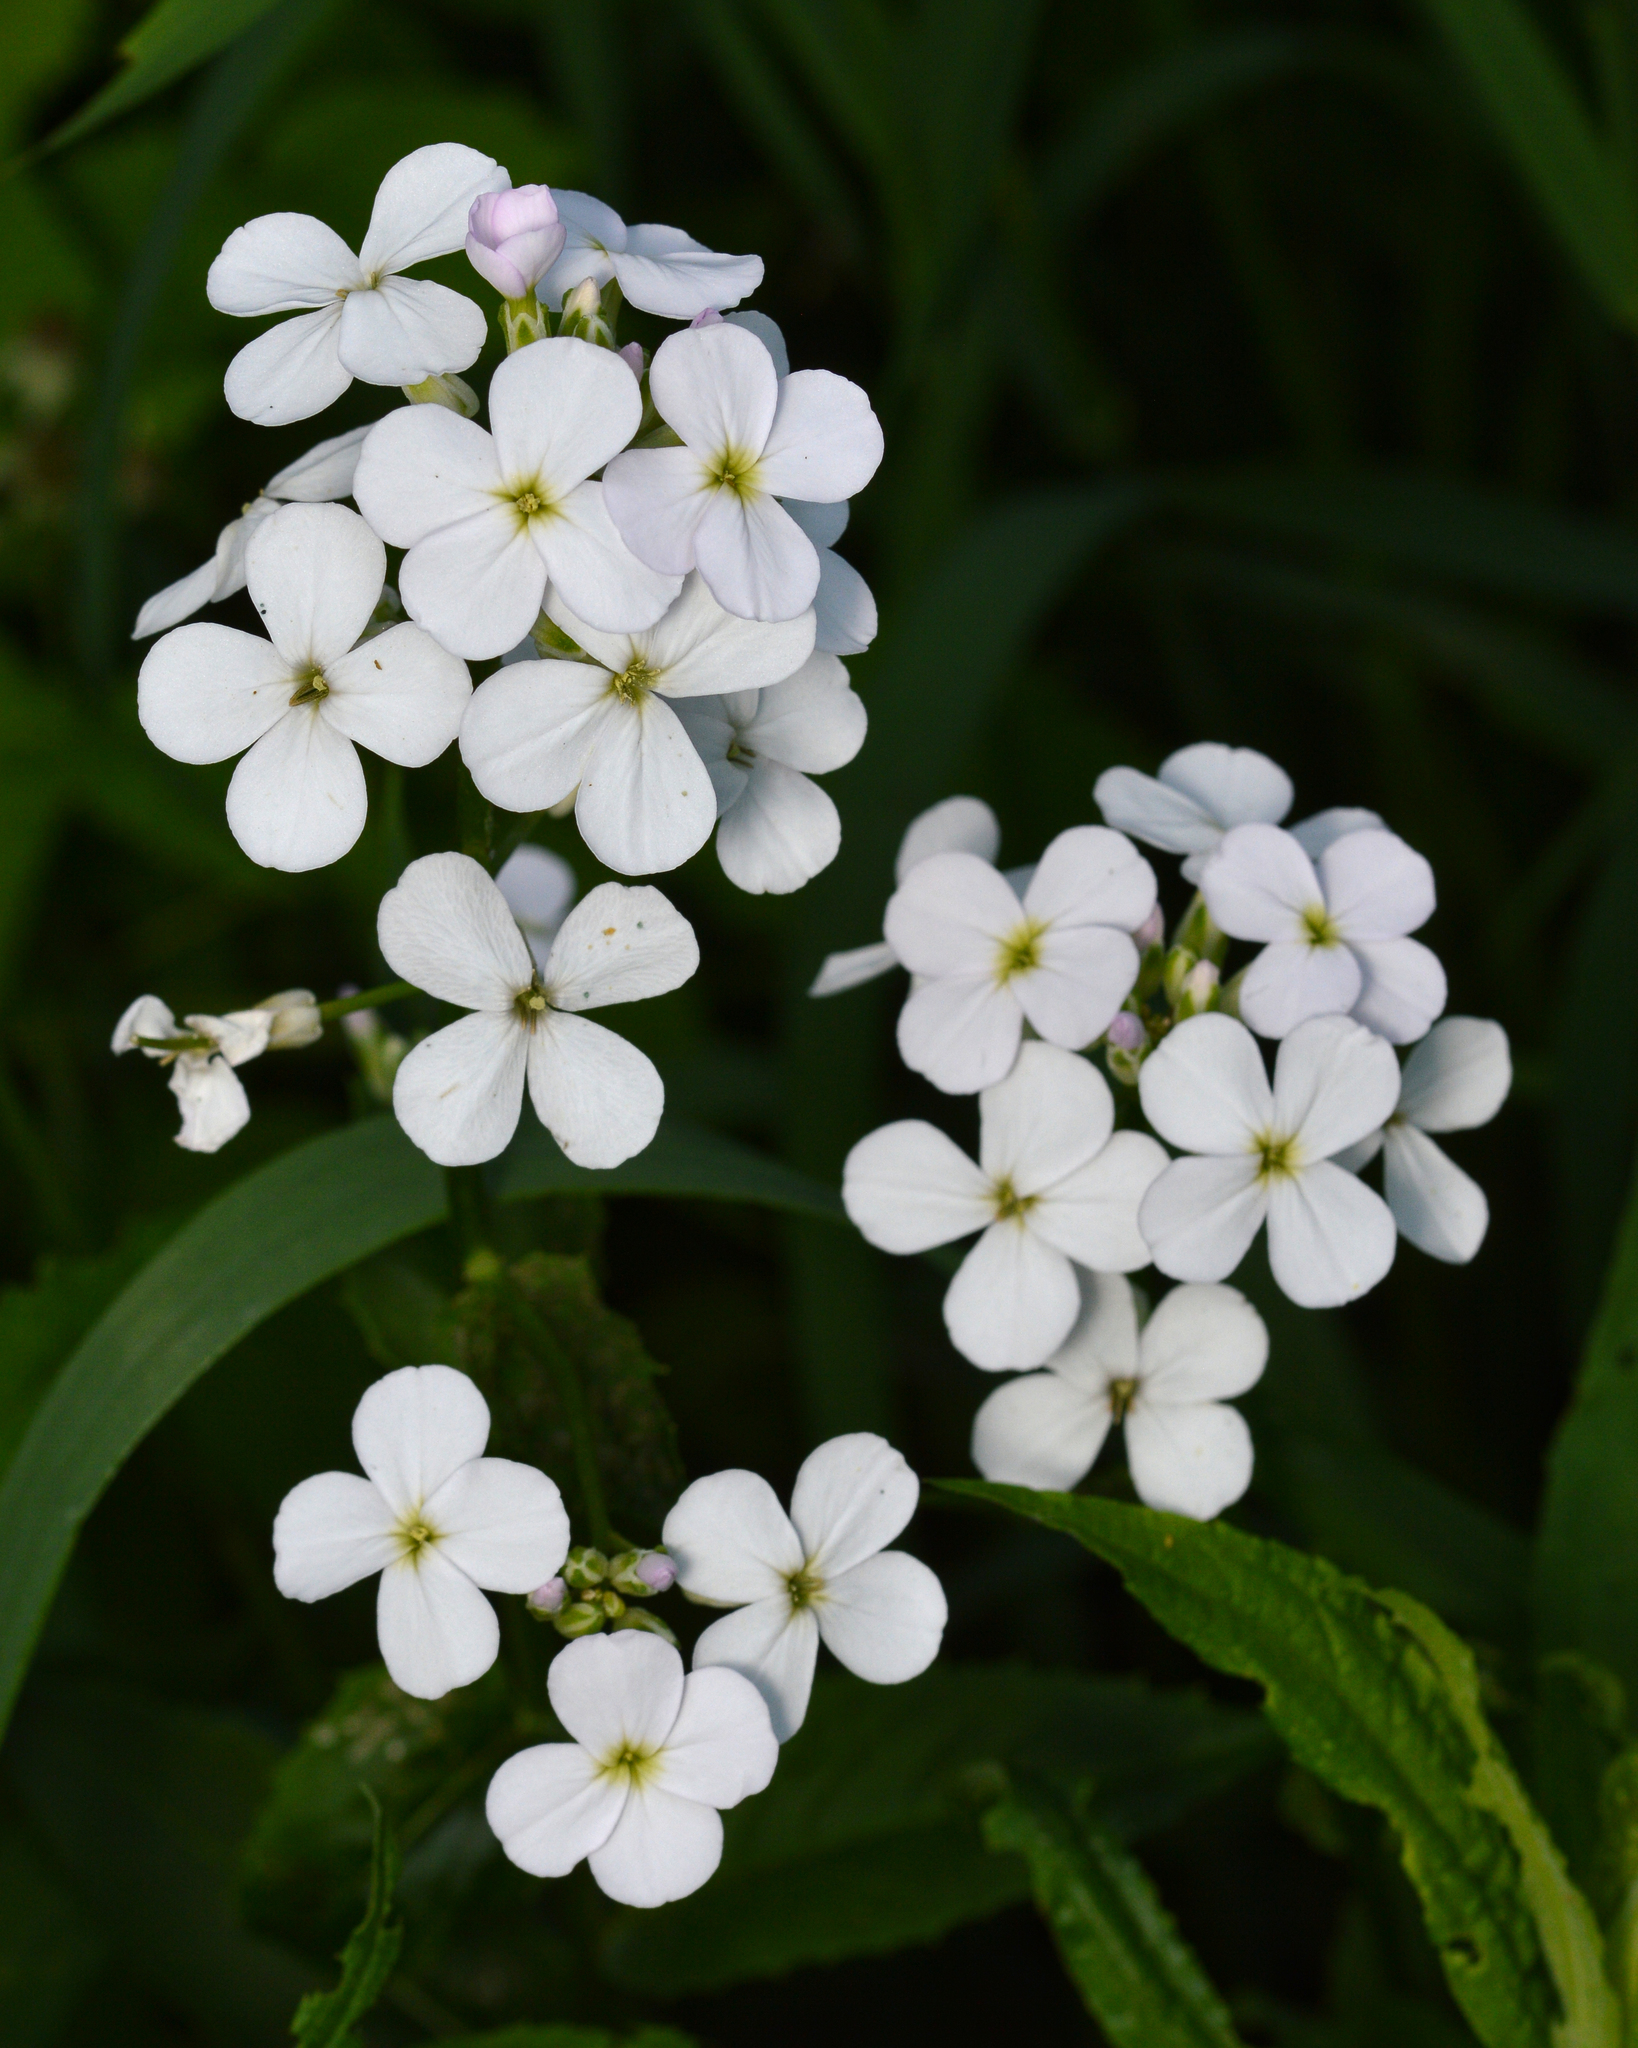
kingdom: Plantae
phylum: Tracheophyta
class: Magnoliopsida
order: Brassicales
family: Brassicaceae
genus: Hesperis
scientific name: Hesperis matronalis
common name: Dame's-violet
